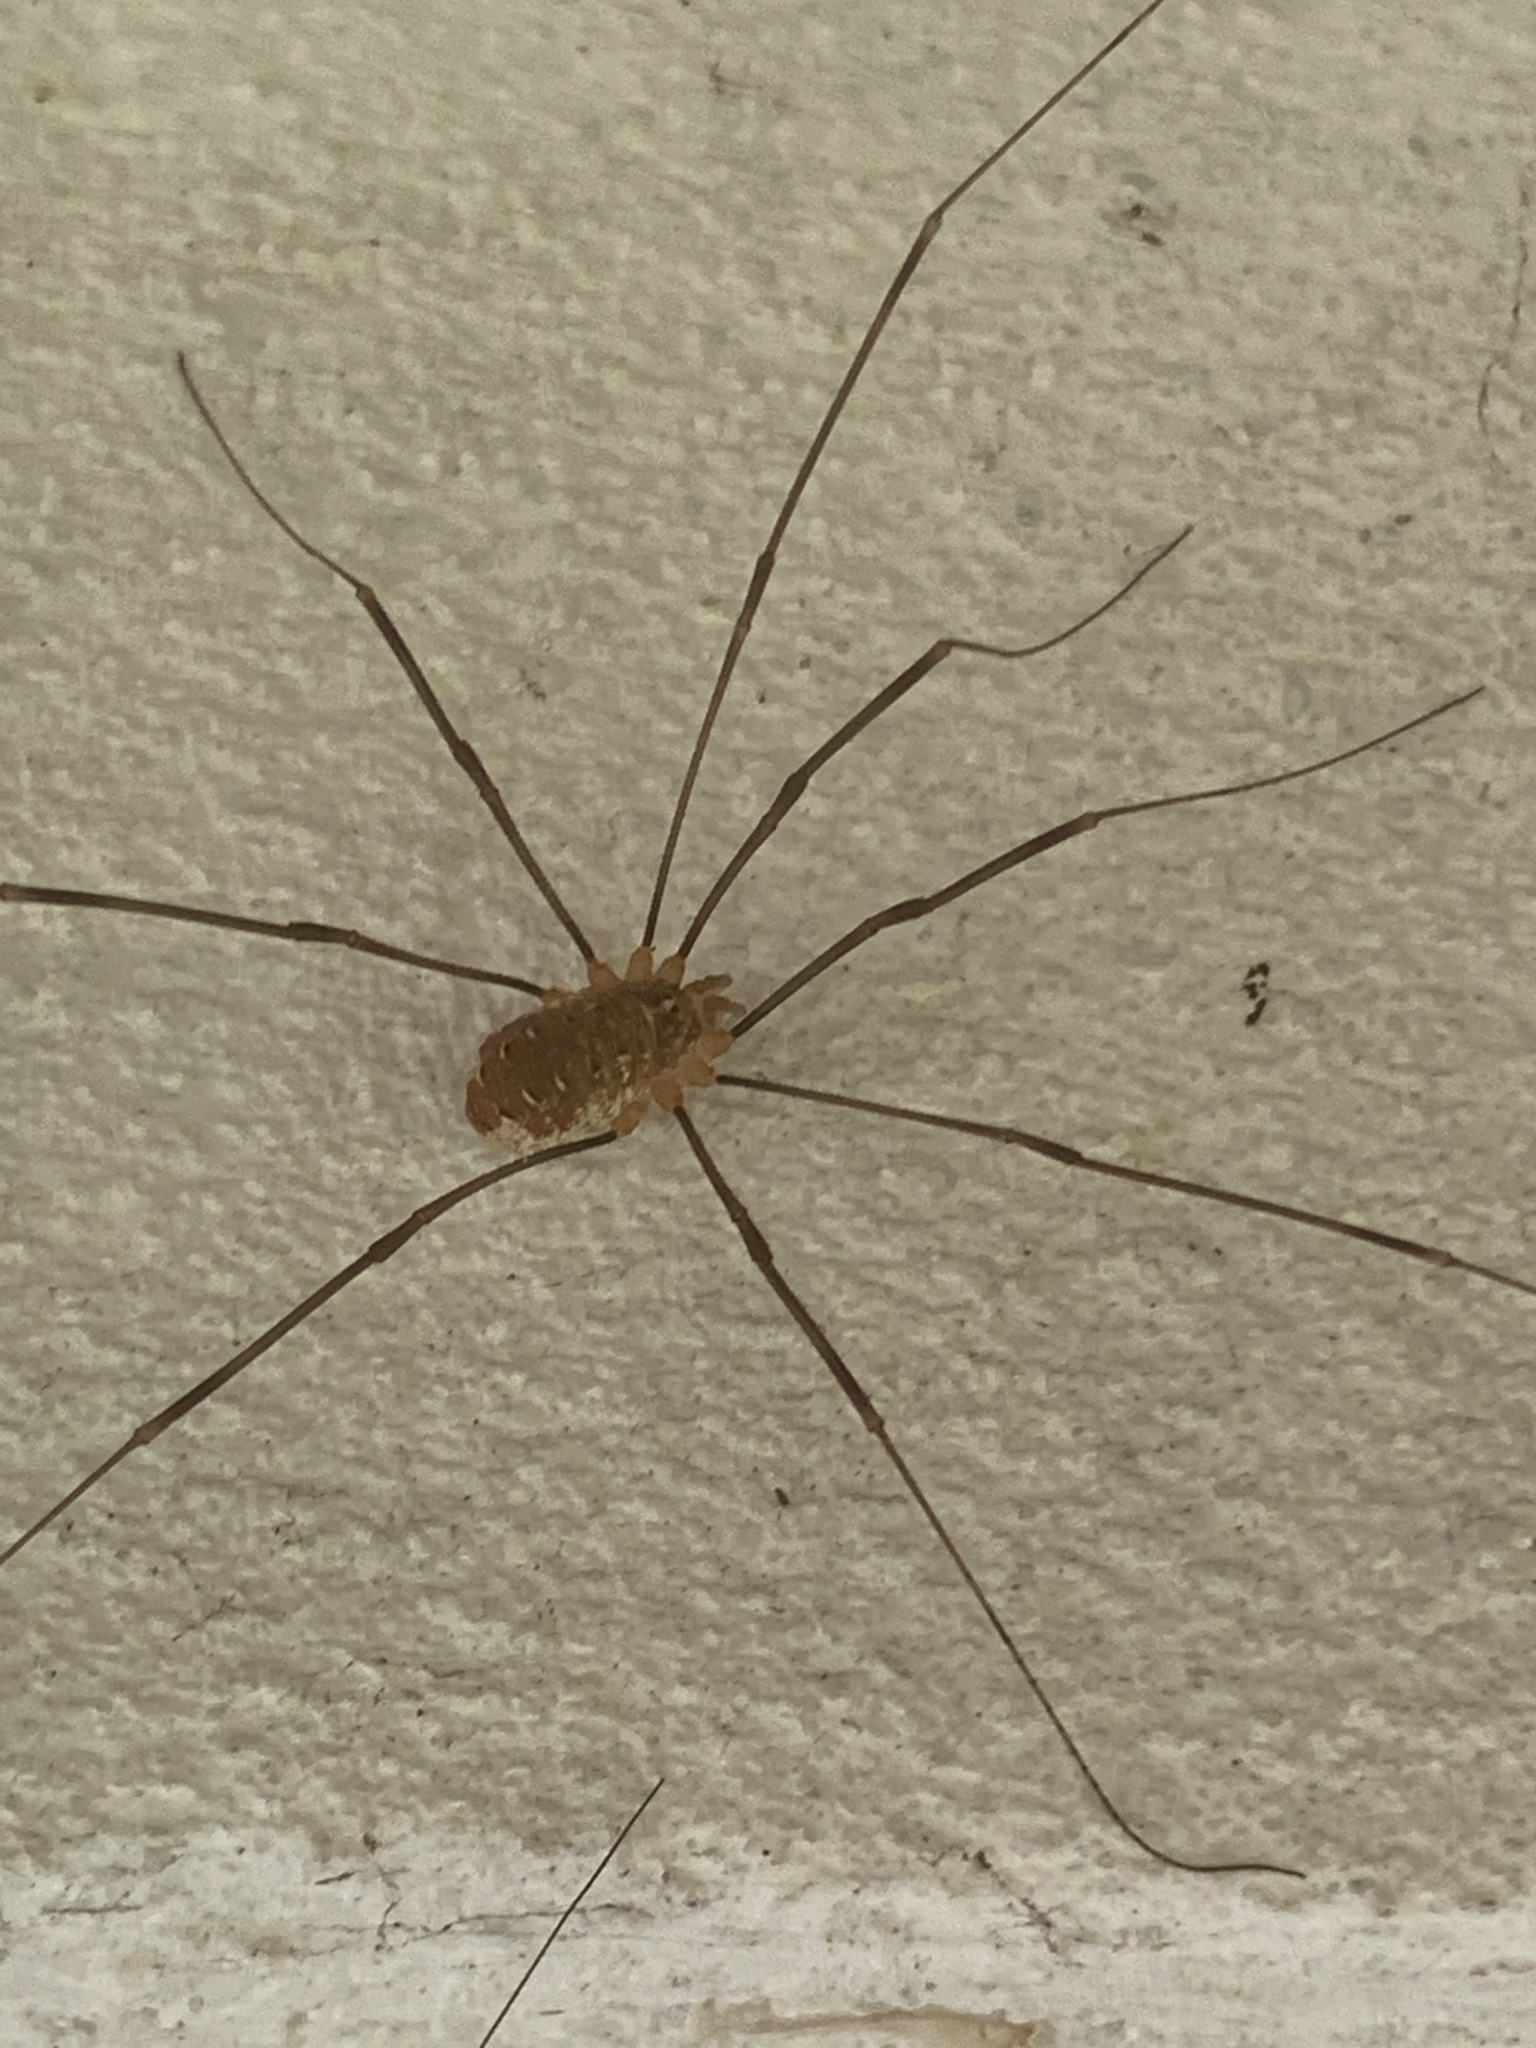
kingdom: Animalia
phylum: Arthropoda
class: Arachnida
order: Opiliones
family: Phalangiidae
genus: Opilio
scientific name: Opilio canestrinii
